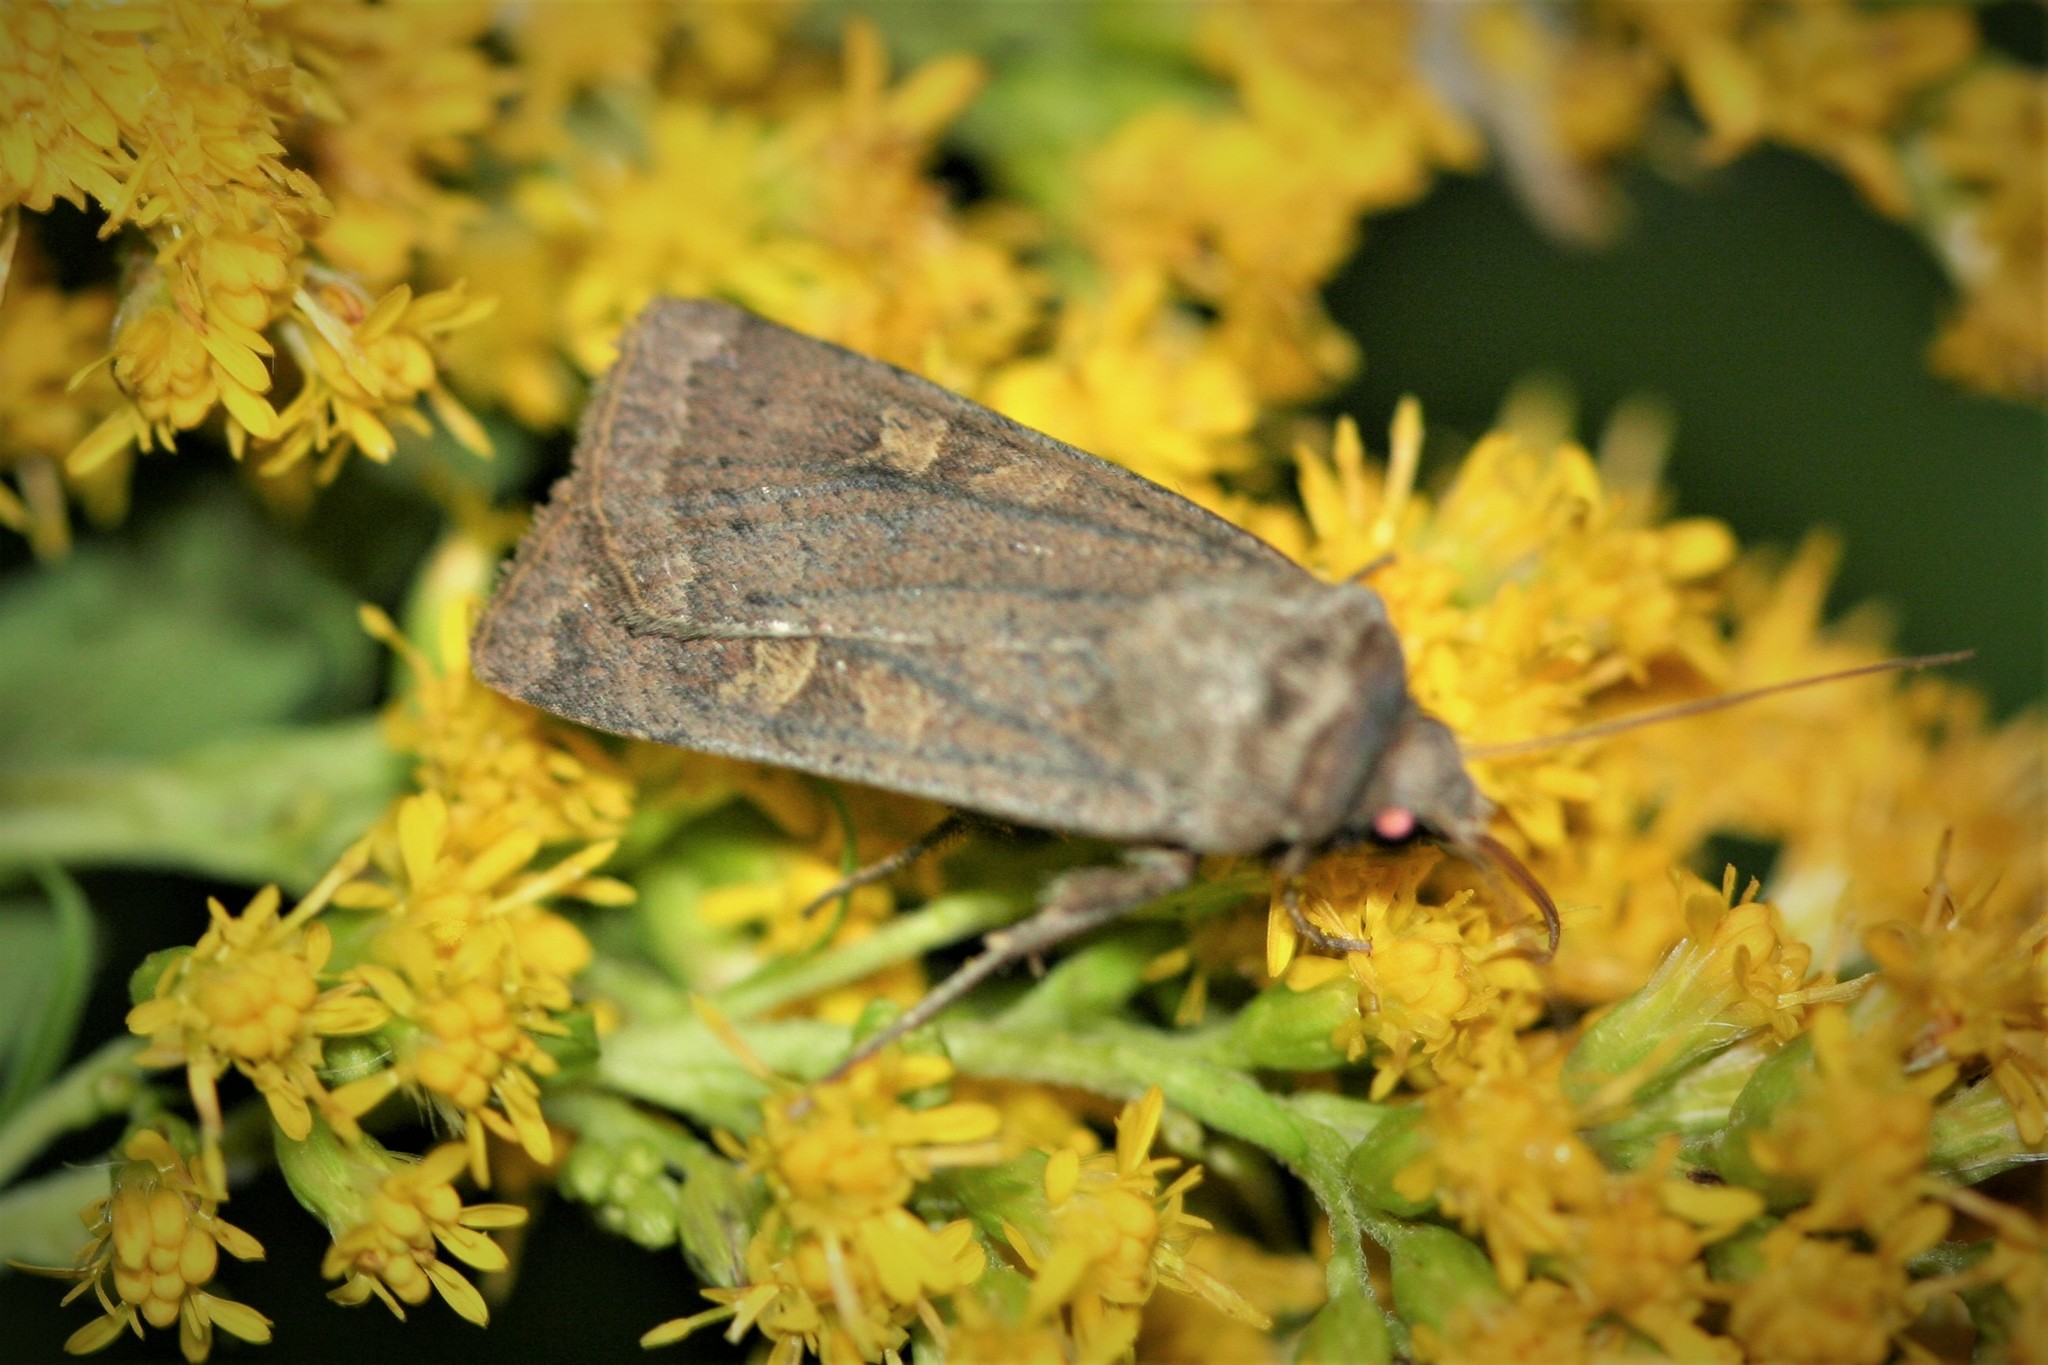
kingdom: Animalia
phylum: Arthropoda
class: Insecta
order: Lepidoptera
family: Noctuidae
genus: Xestia
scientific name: Xestia xanthographa
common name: Square-spot rustic
